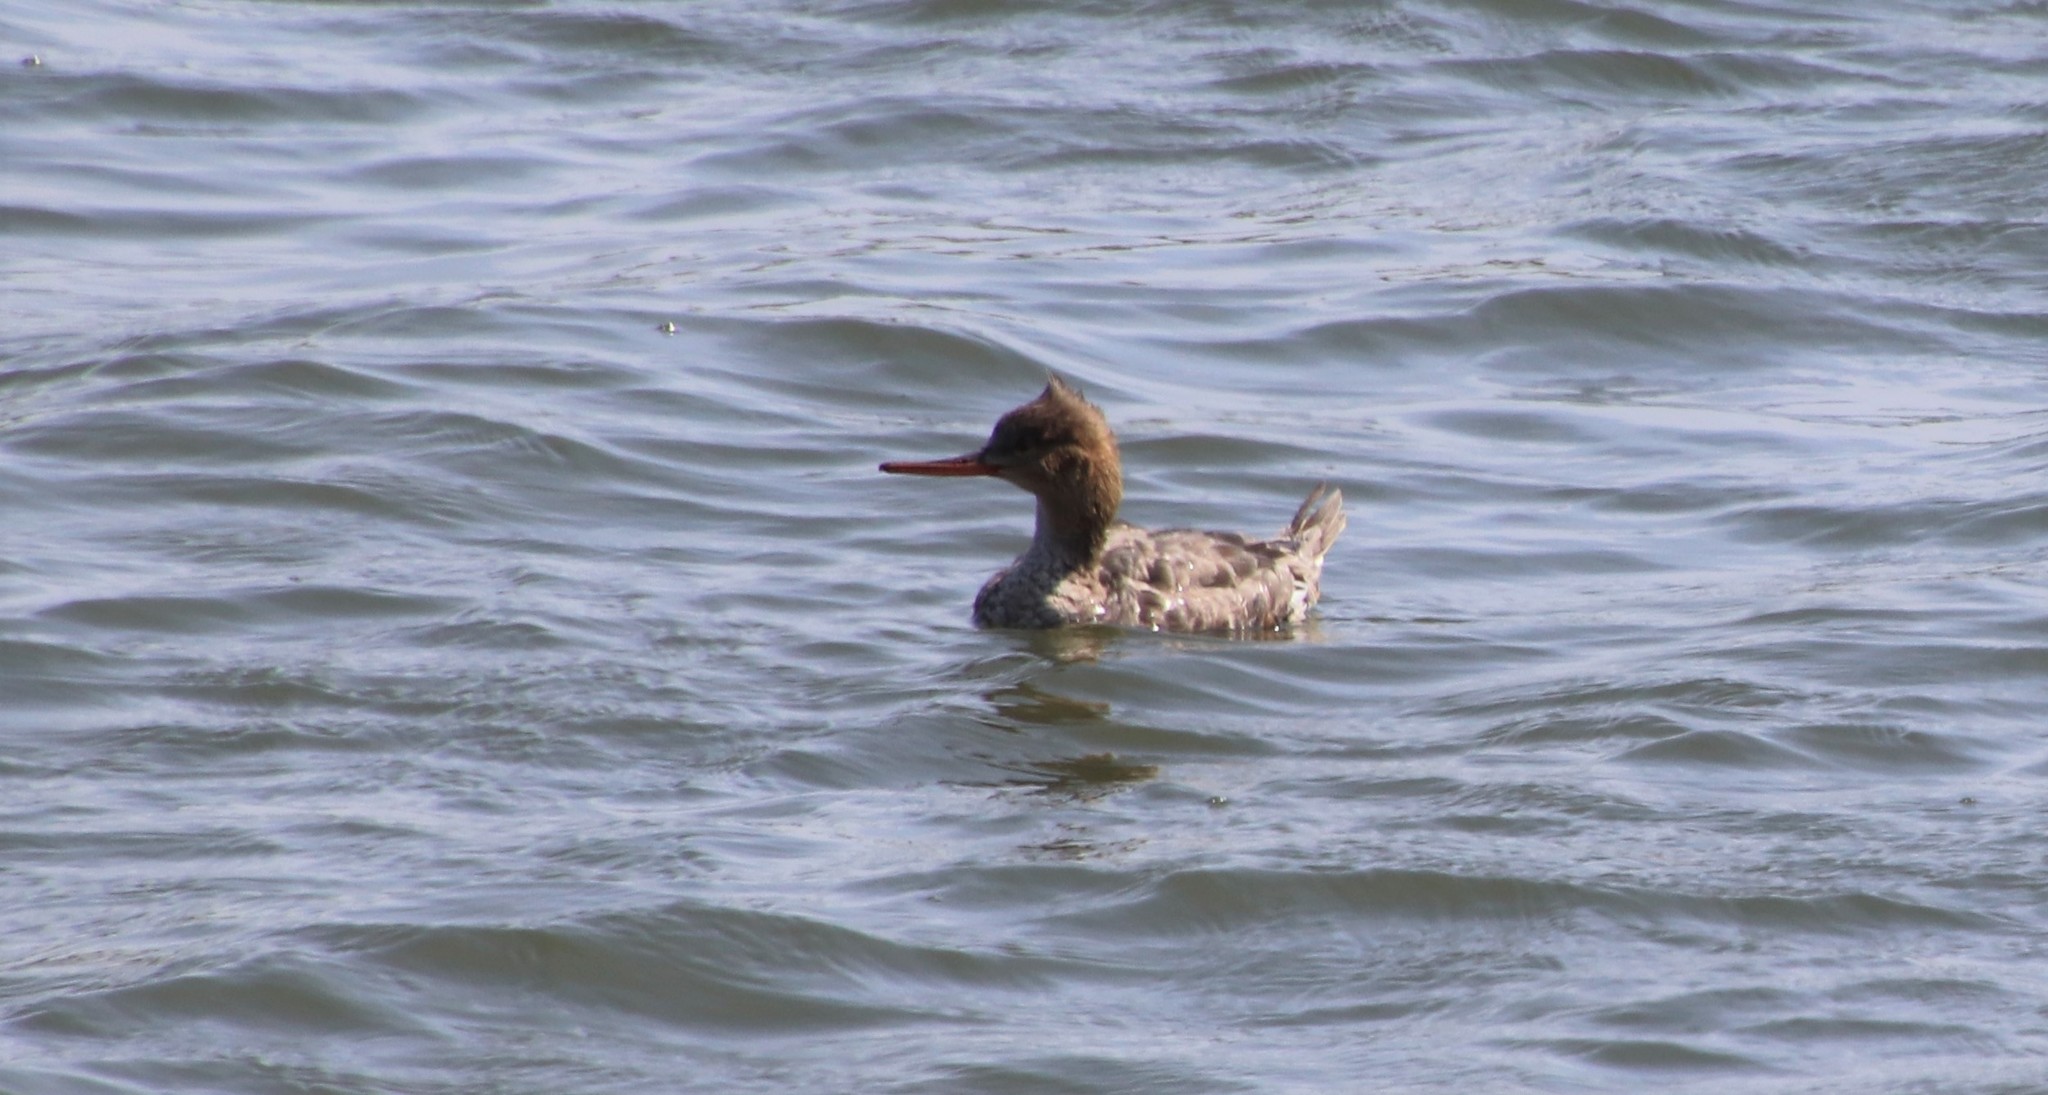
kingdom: Animalia
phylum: Chordata
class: Aves
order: Anseriformes
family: Anatidae
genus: Mergus
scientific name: Mergus serrator
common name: Red-breasted merganser
